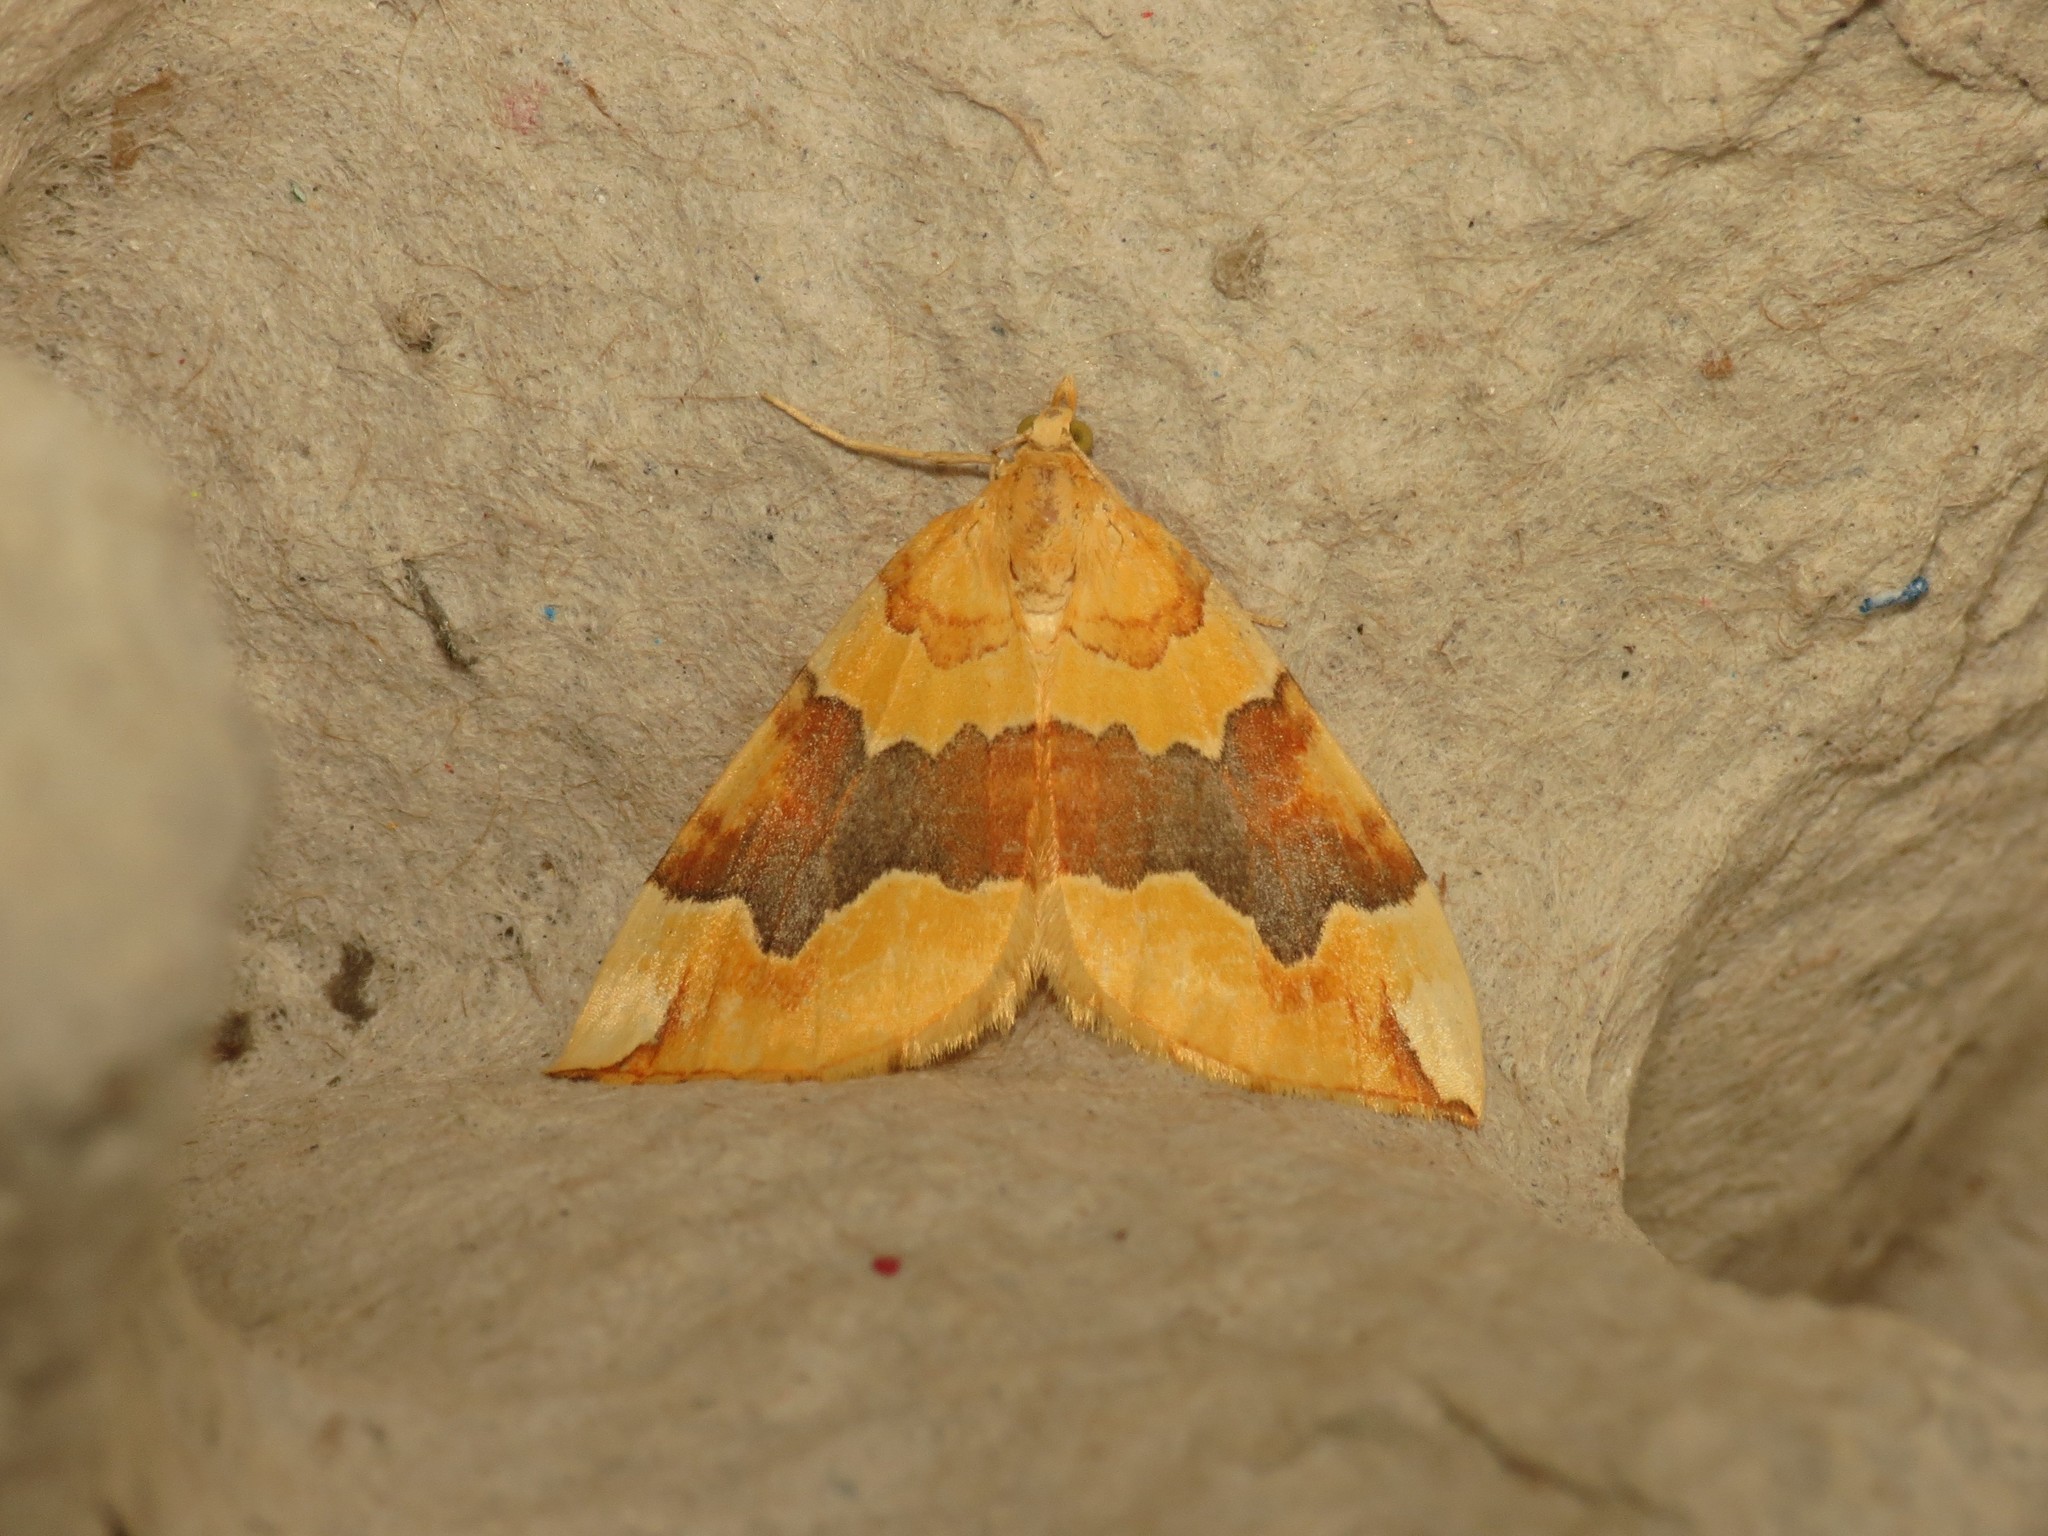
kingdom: Animalia
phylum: Arthropoda
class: Insecta
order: Lepidoptera
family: Geometridae
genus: Cidaria
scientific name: Cidaria fulvata
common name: Barred yellow
